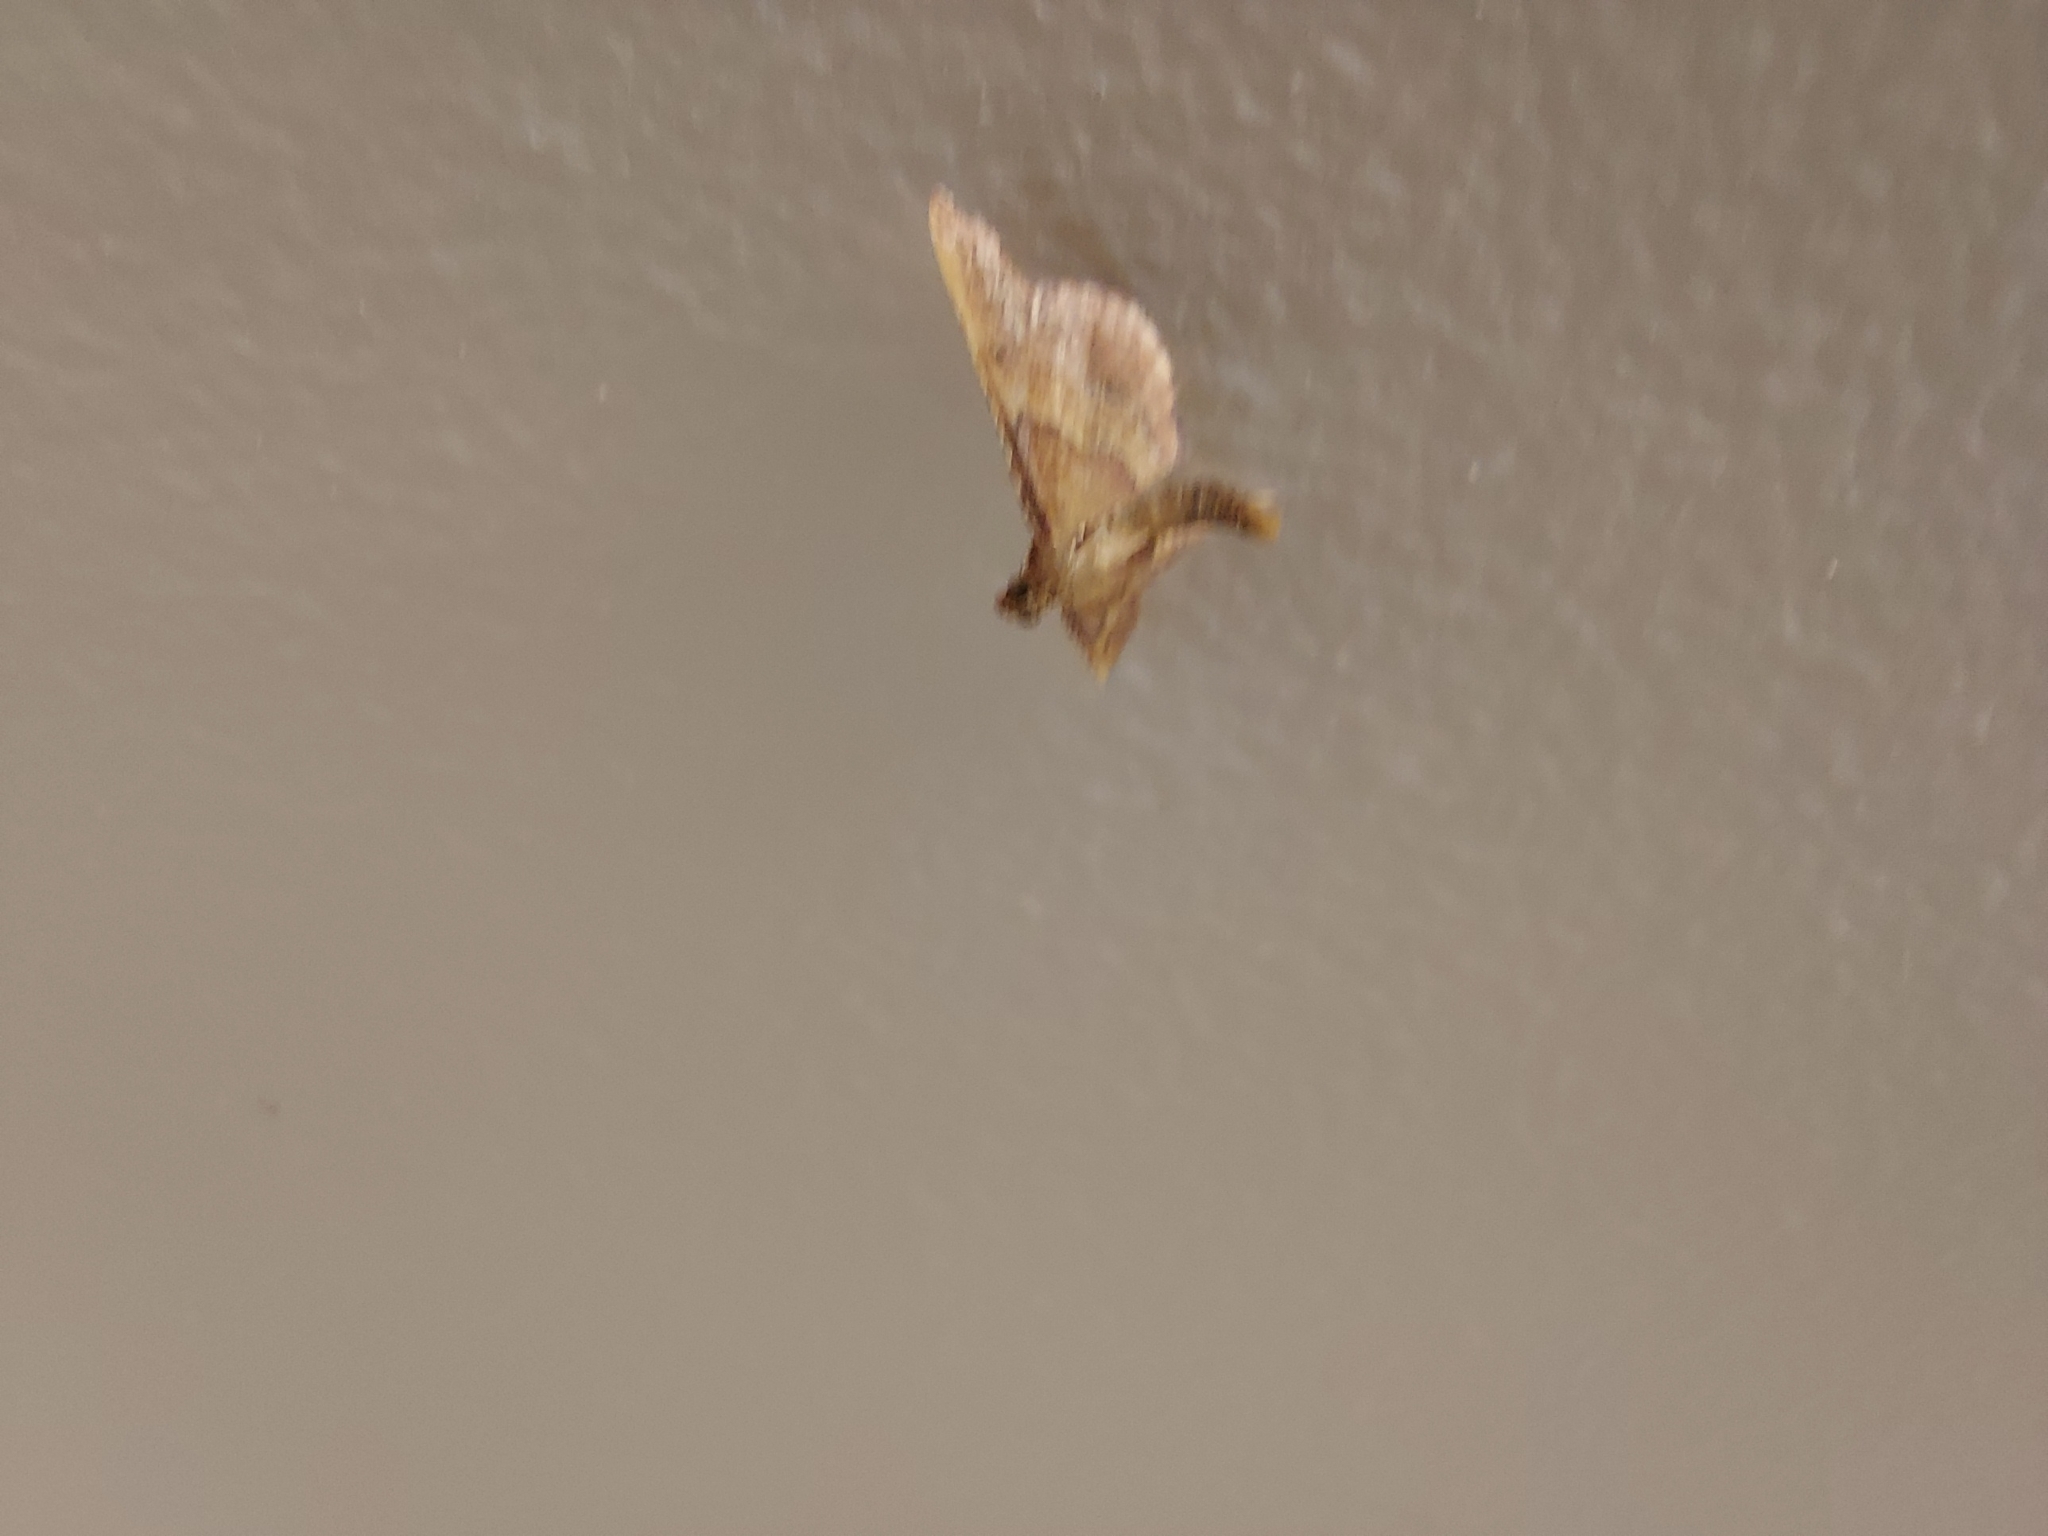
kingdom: Animalia
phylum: Arthropoda
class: Insecta
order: Lepidoptera
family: Pyralidae
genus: Endotricha
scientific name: Endotricha flammealis
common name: Rosy tabby
